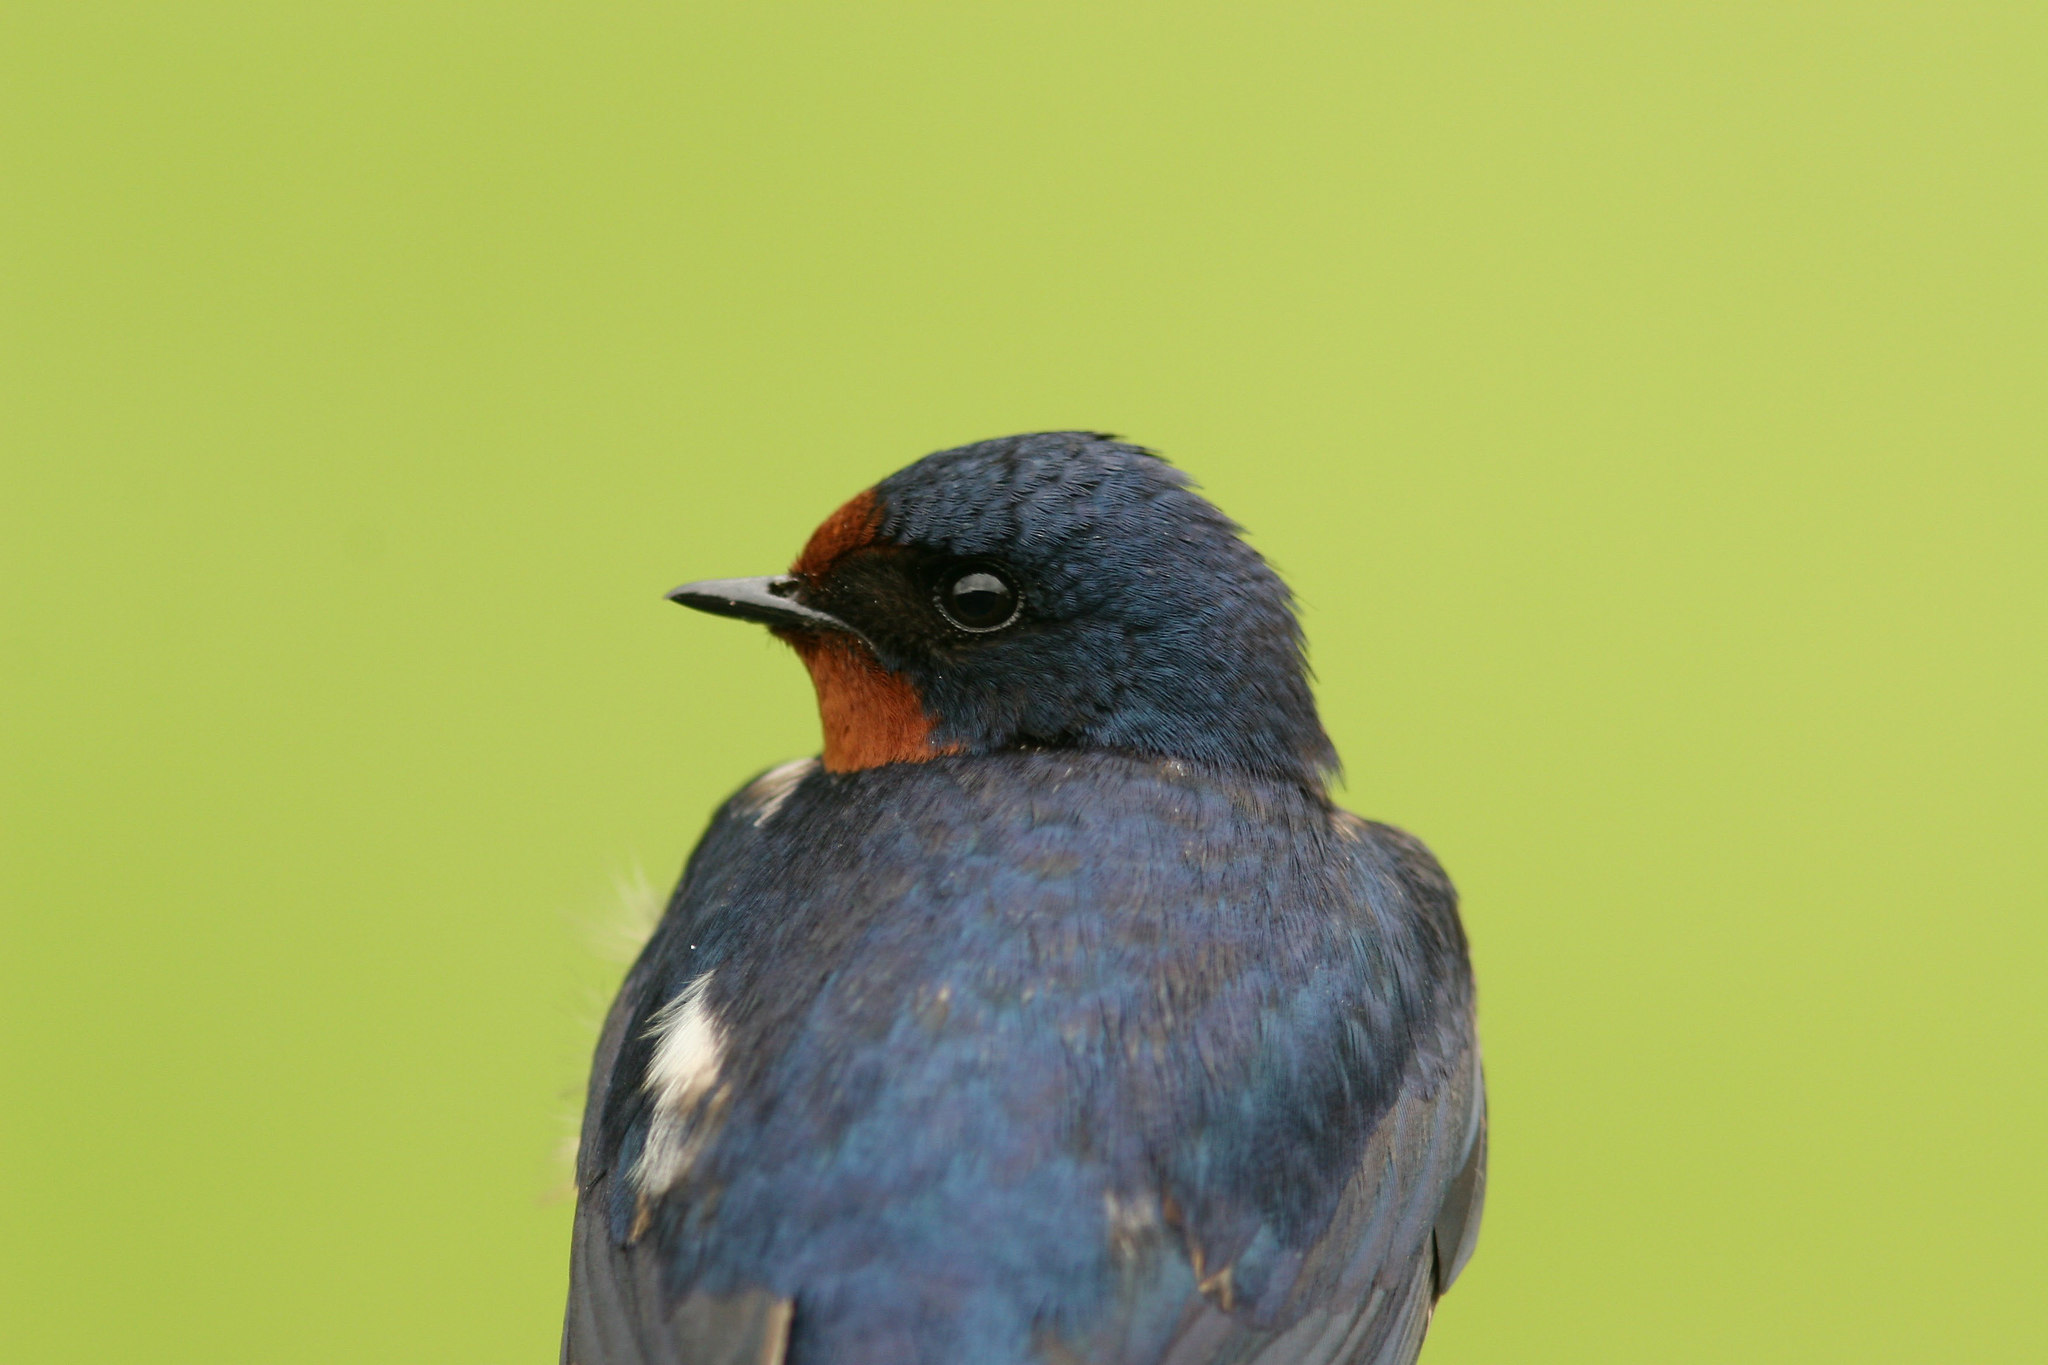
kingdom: Animalia
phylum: Chordata
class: Aves
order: Passeriformes
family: Hirundinidae
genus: Hirundo
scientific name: Hirundo rustica
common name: Barn swallow
